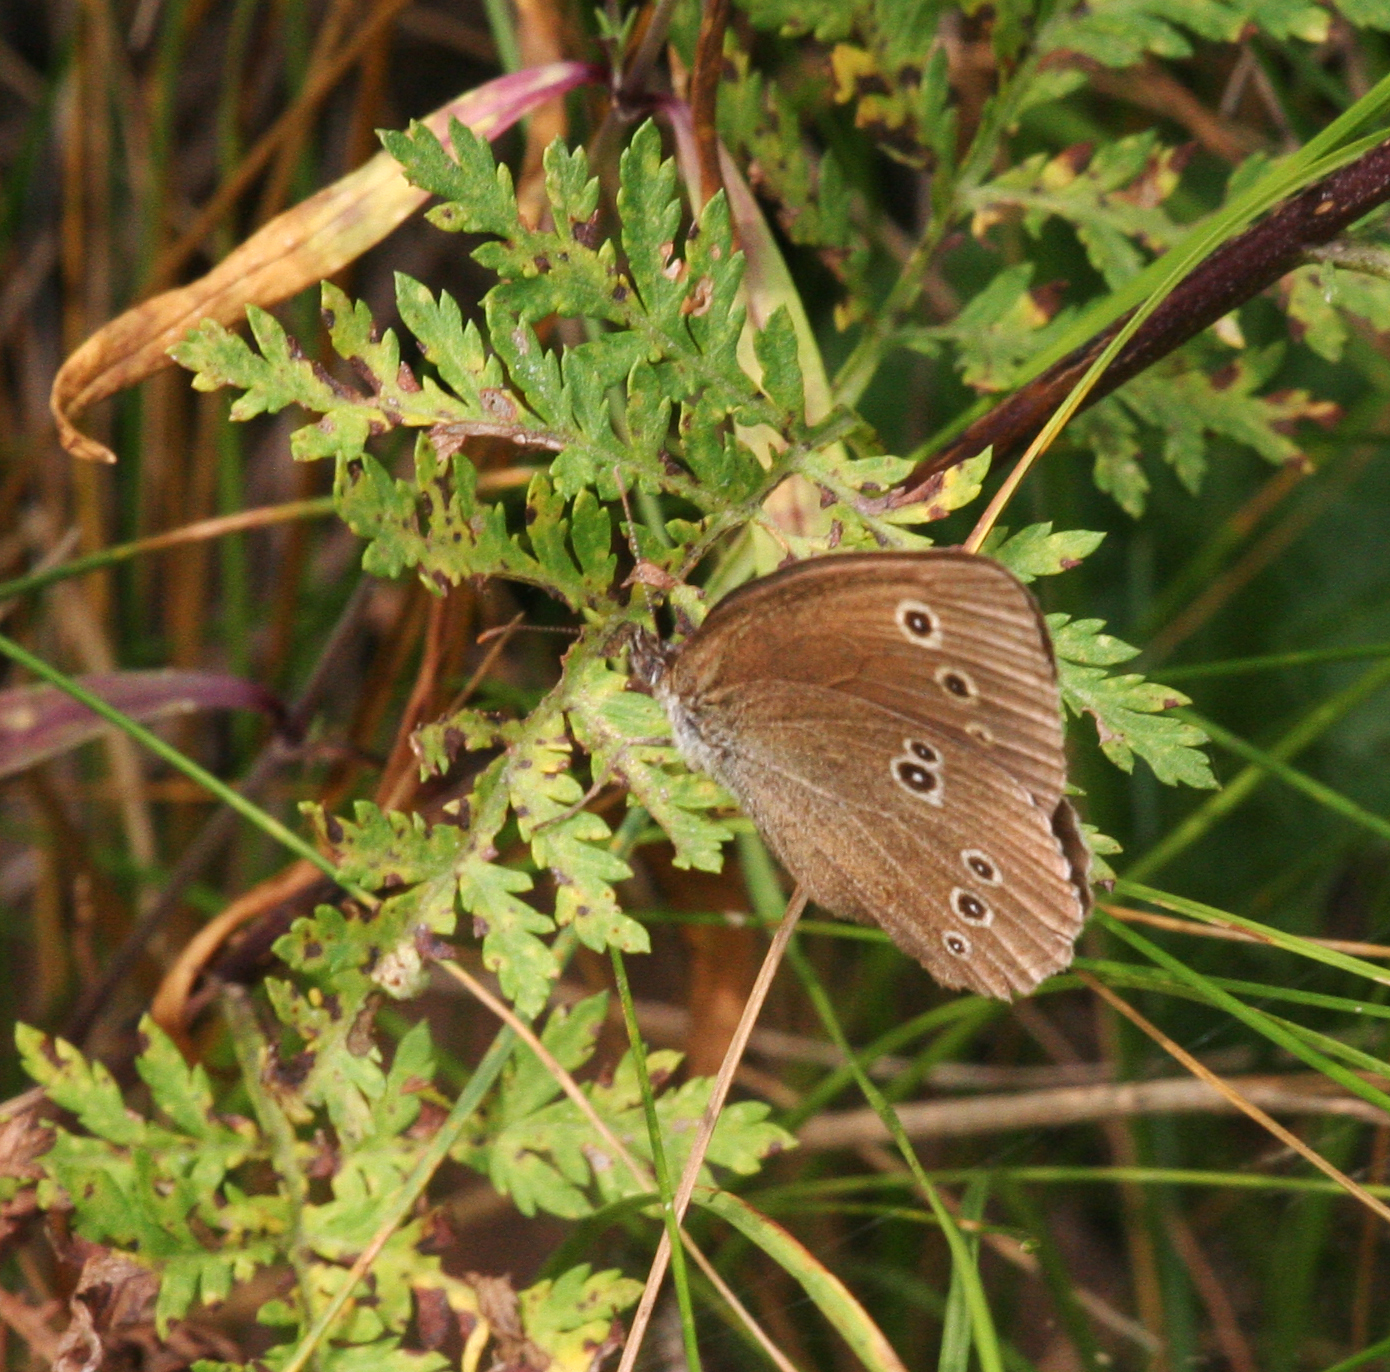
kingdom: Animalia
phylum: Arthropoda
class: Insecta
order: Lepidoptera
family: Nymphalidae
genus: Aphantopus
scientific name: Aphantopus hyperantus
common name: Ringlet
